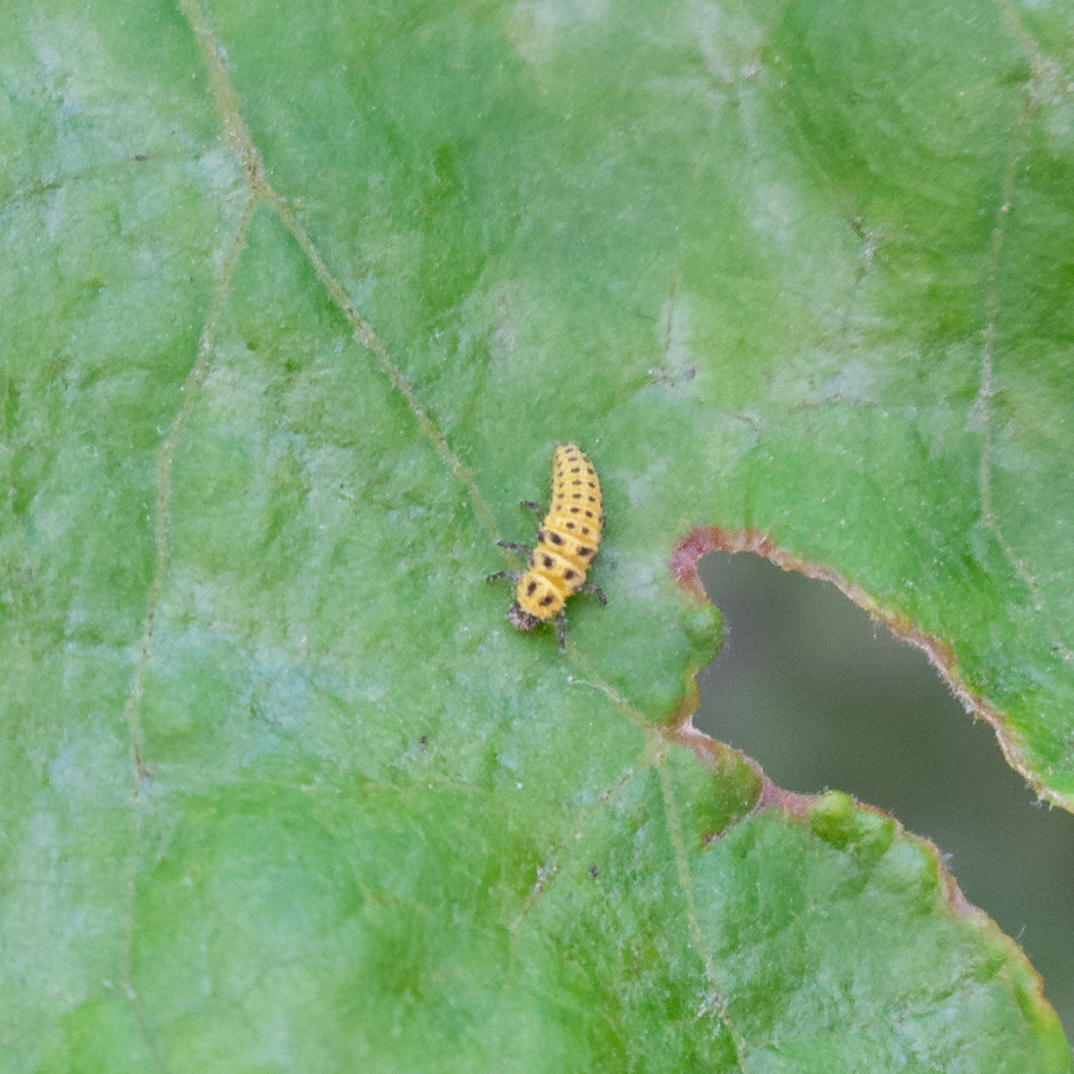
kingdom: Animalia
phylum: Arthropoda
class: Insecta
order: Coleoptera
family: Coccinellidae
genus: Psyllobora
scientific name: Psyllobora vigintiduopunctata
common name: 22-spot ladybird
